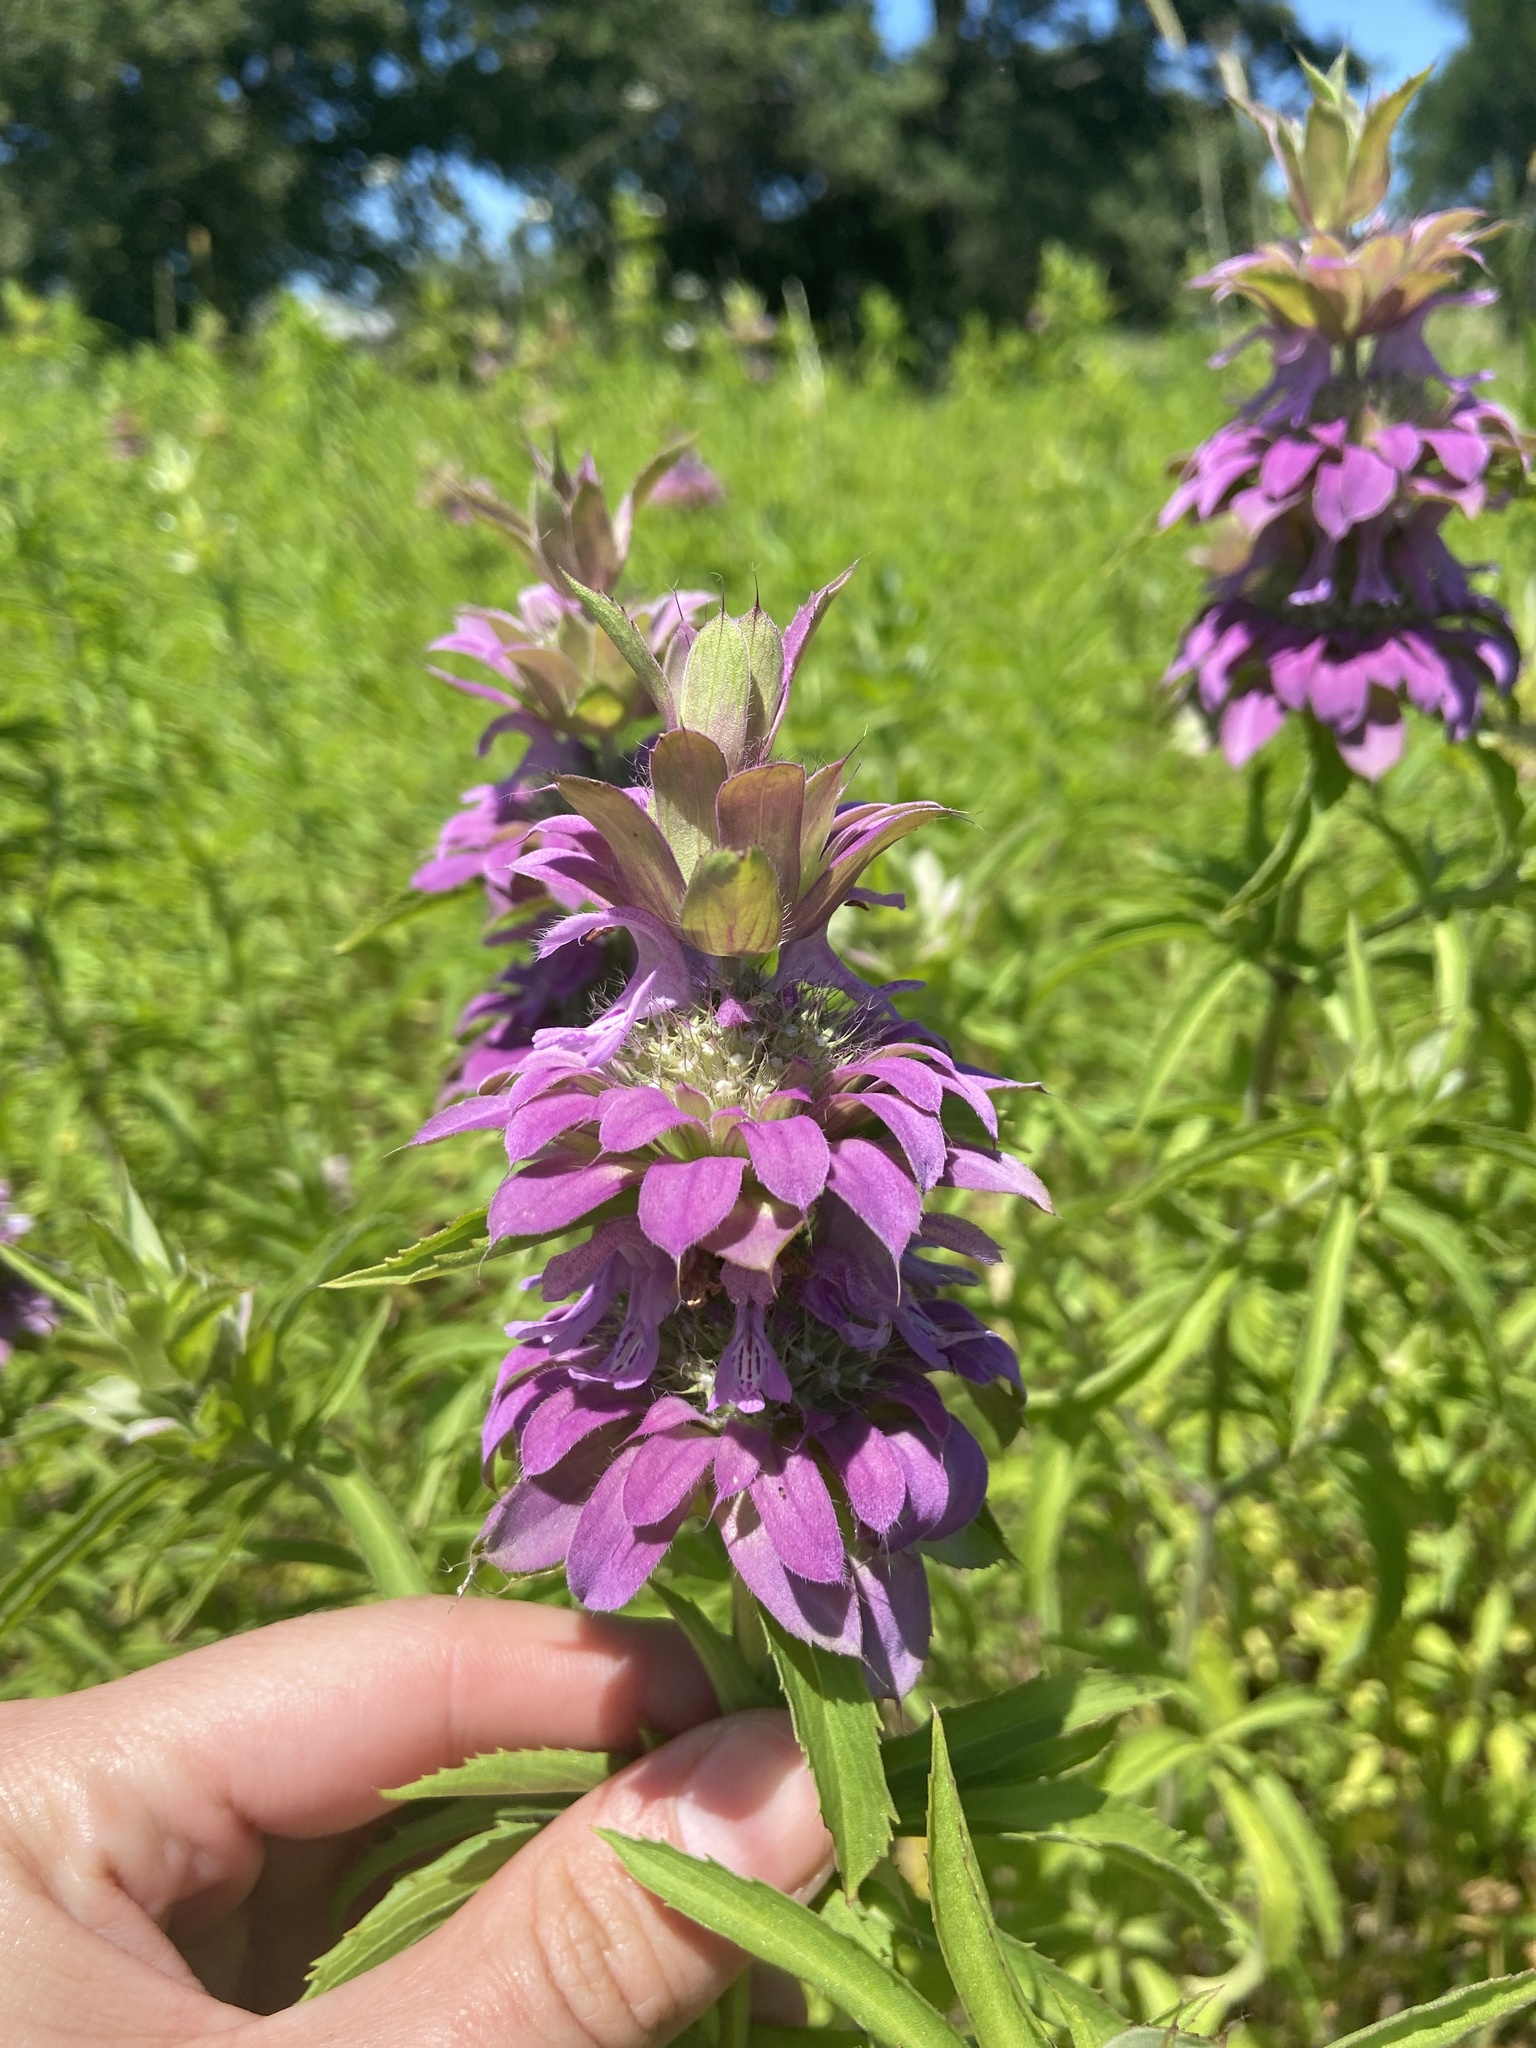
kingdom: Plantae
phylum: Tracheophyta
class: Magnoliopsida
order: Lamiales
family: Lamiaceae
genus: Monarda
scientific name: Monarda citriodora
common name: Lemon beebalm
